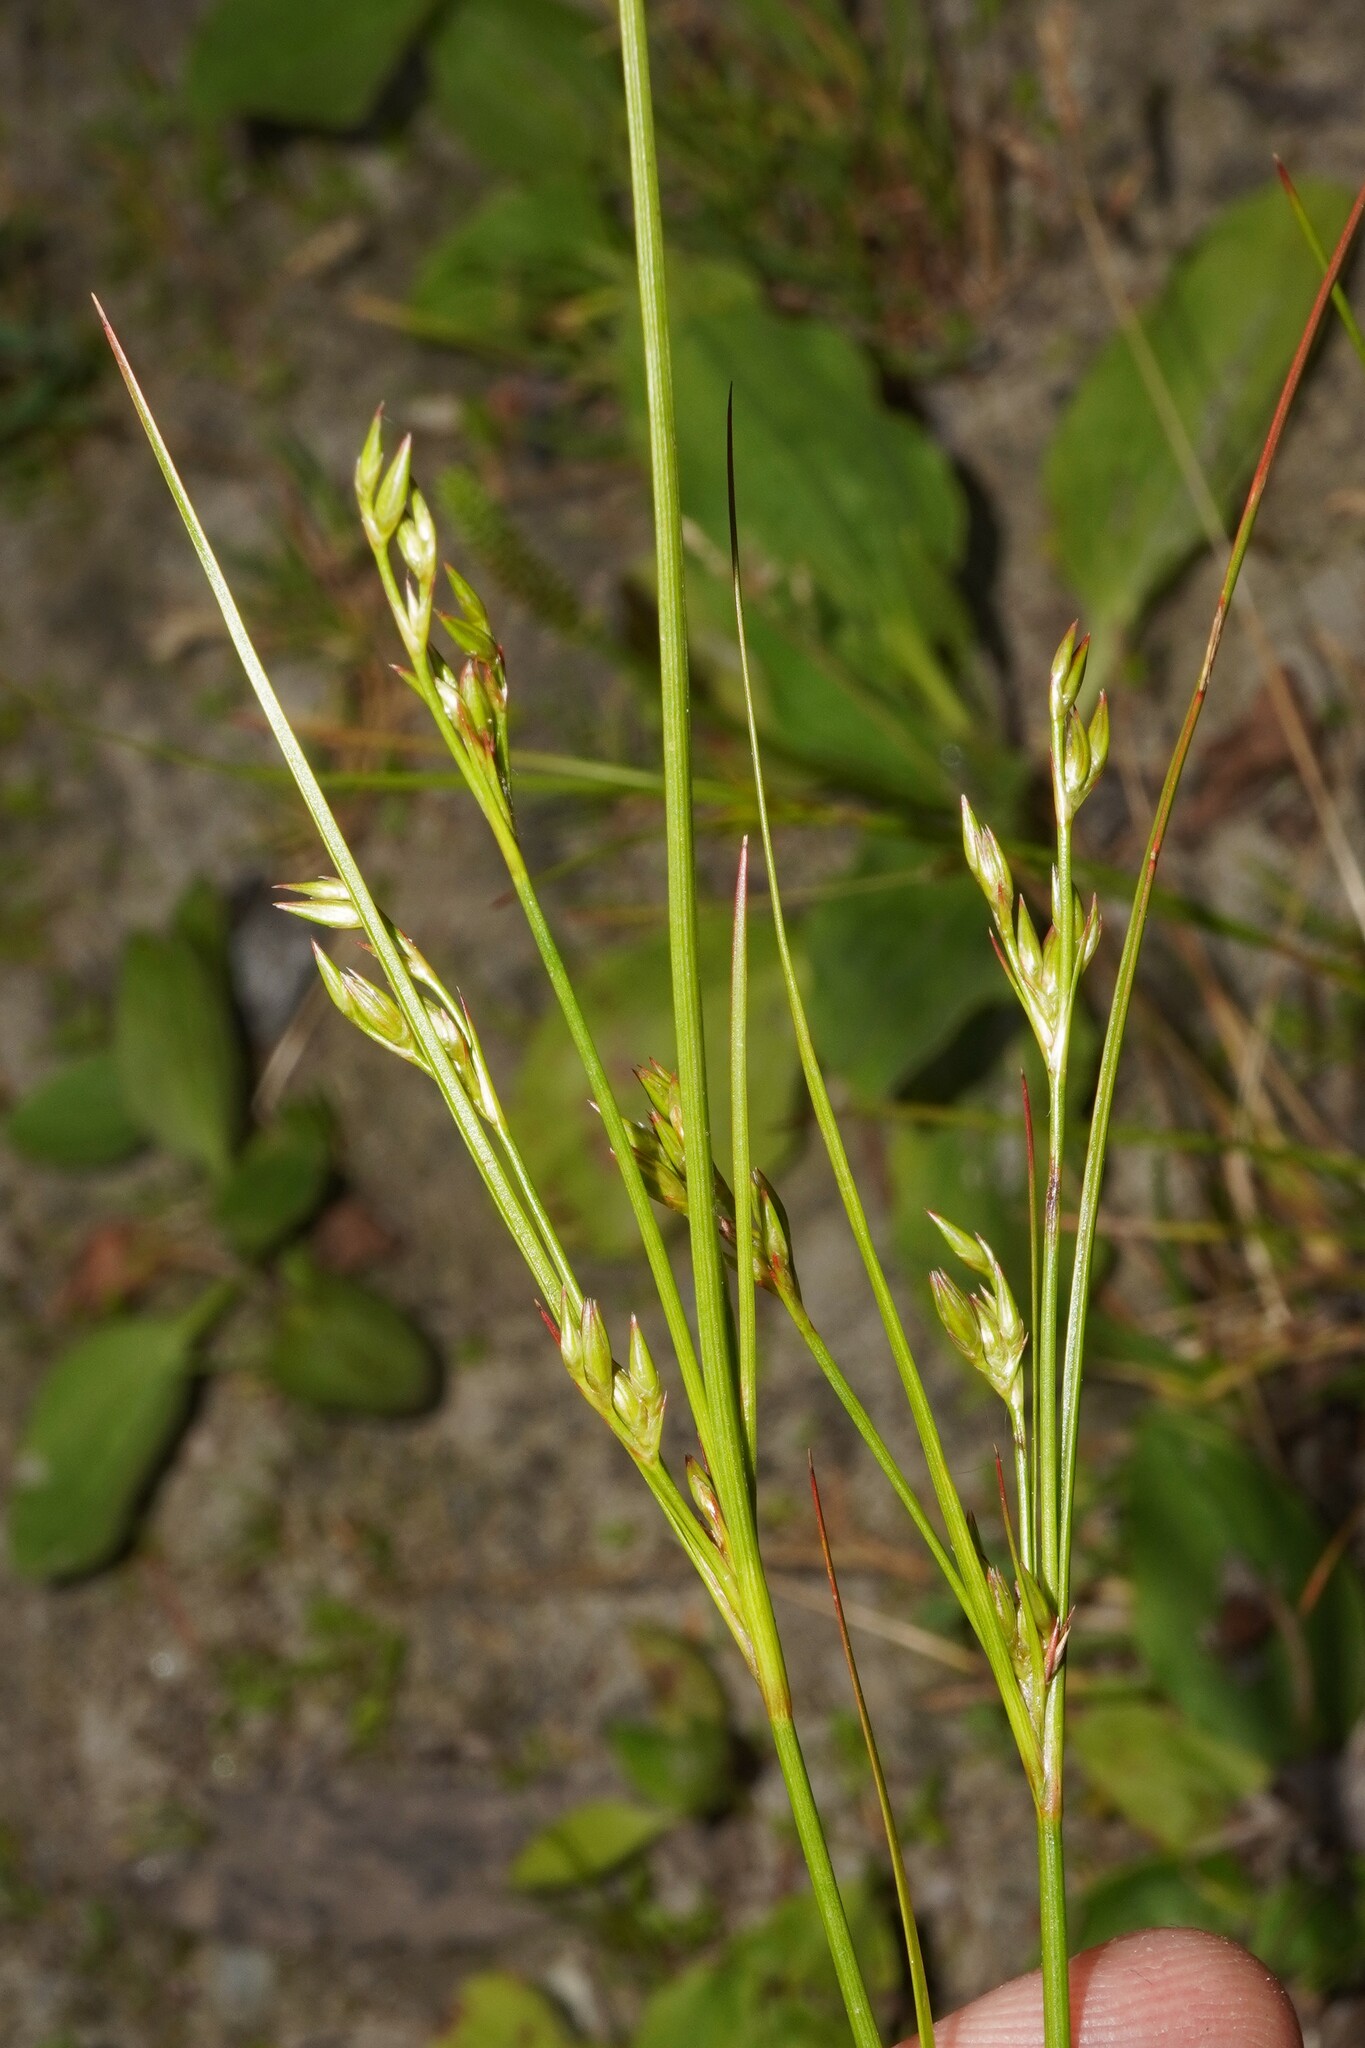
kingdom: Plantae
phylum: Tracheophyta
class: Liliopsida
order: Poales
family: Juncaceae
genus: Juncus
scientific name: Juncus tenuis
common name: Slender rush
